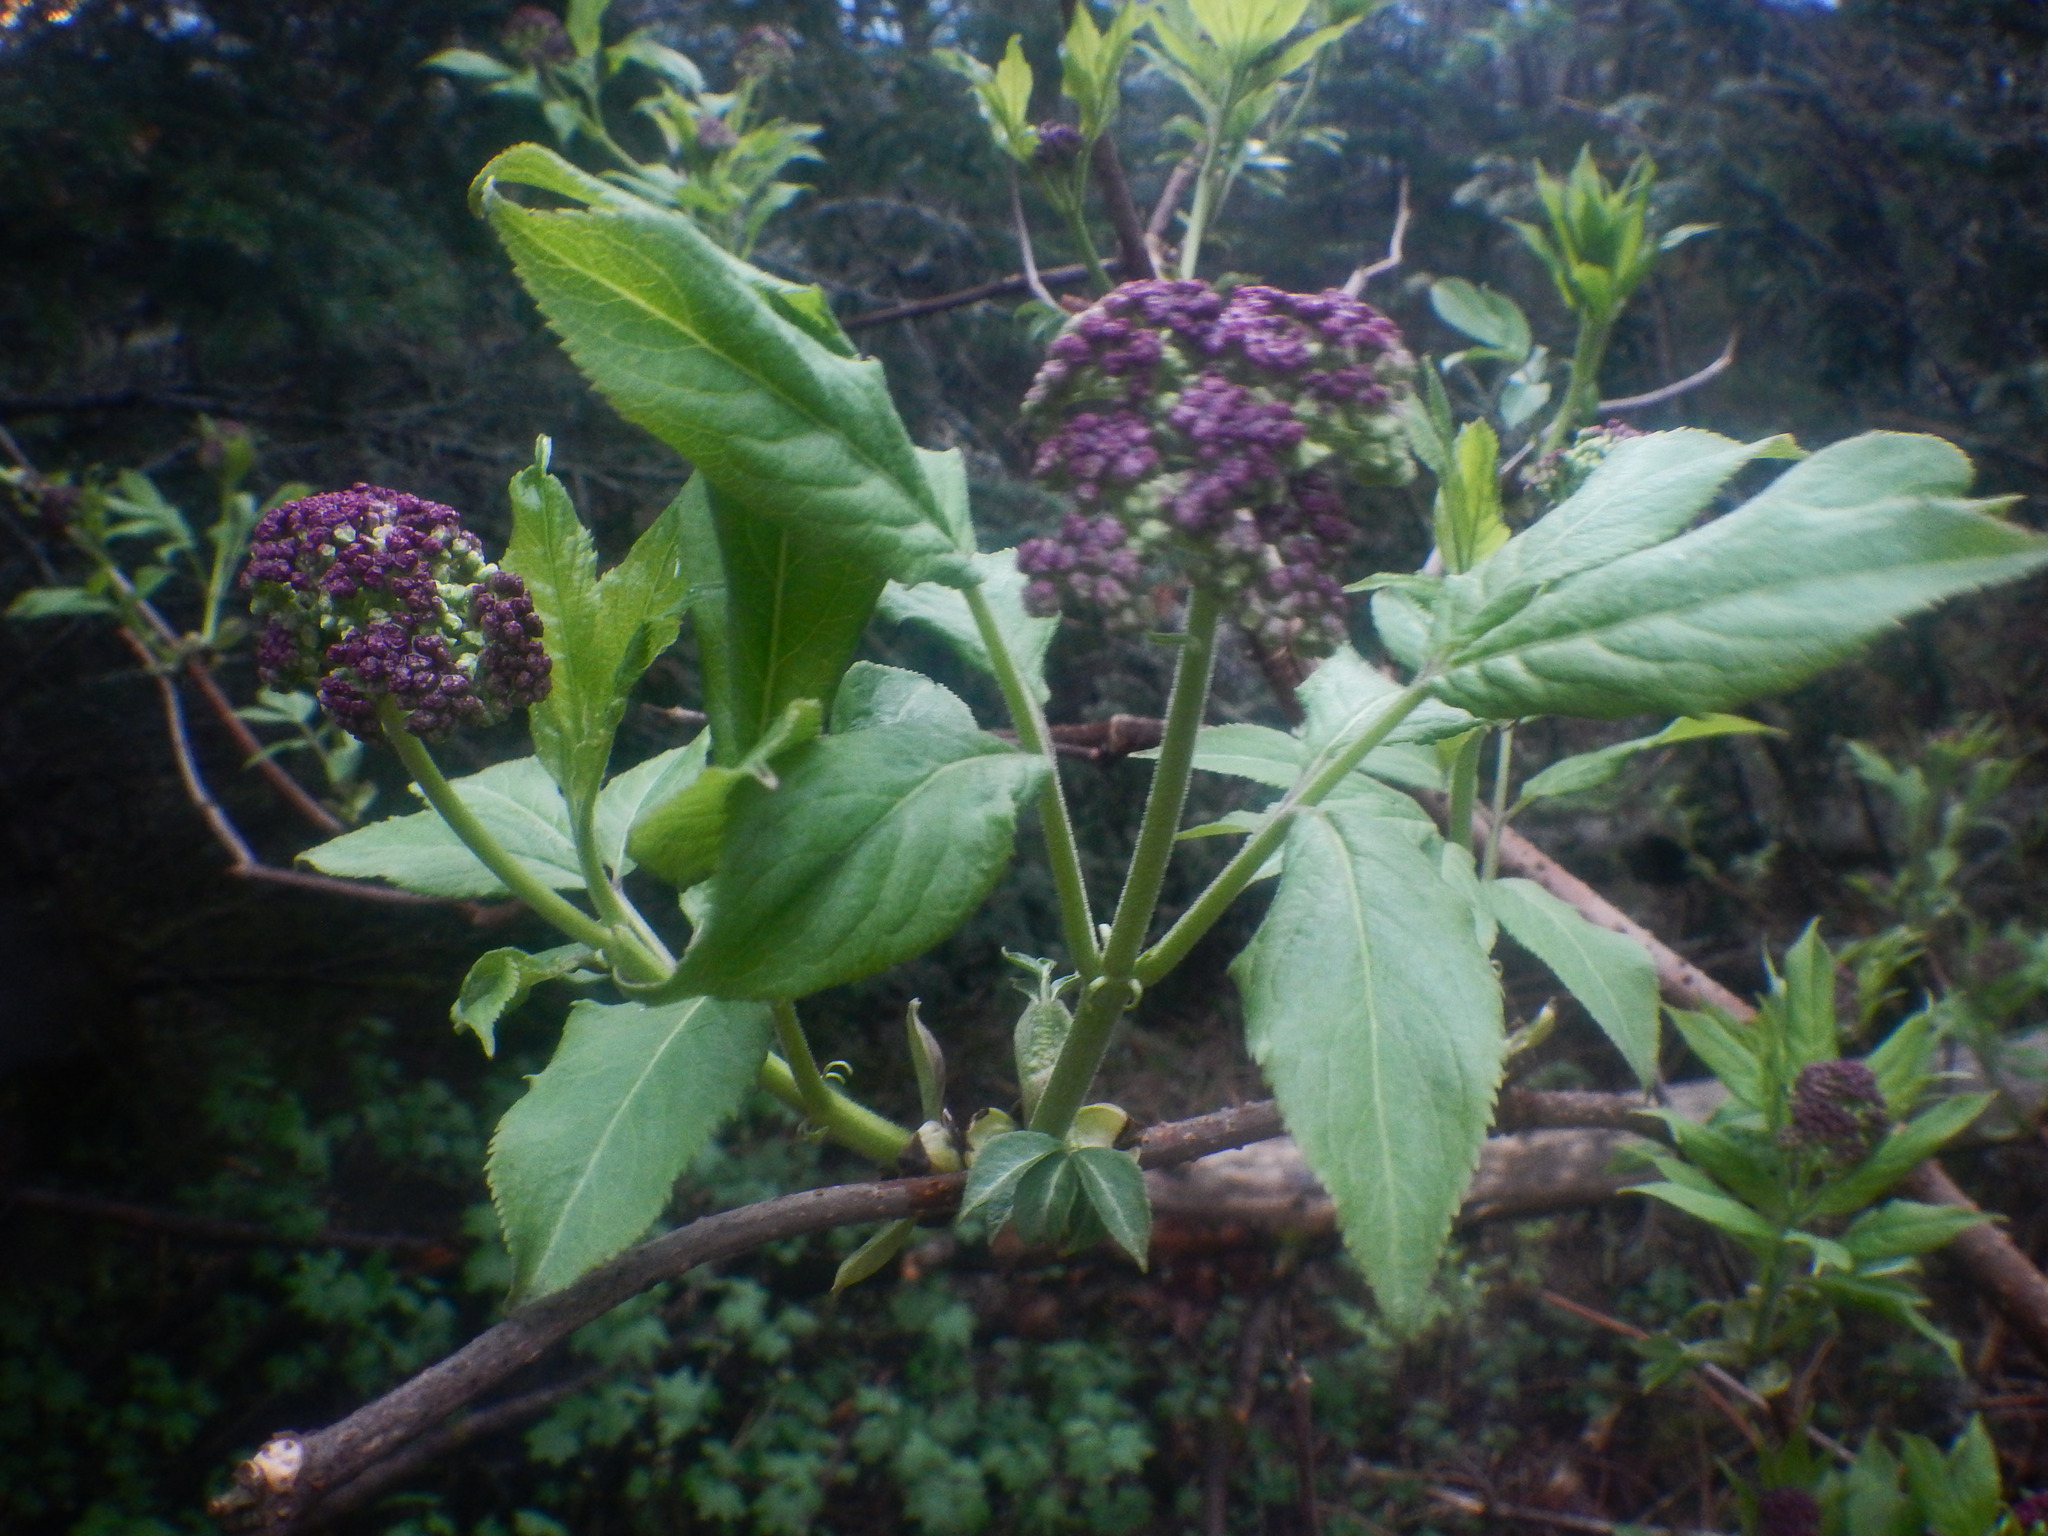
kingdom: Plantae
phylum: Tracheophyta
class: Magnoliopsida
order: Dipsacales
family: Viburnaceae
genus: Sambucus
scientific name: Sambucus racemosa
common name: Red-berried elder
